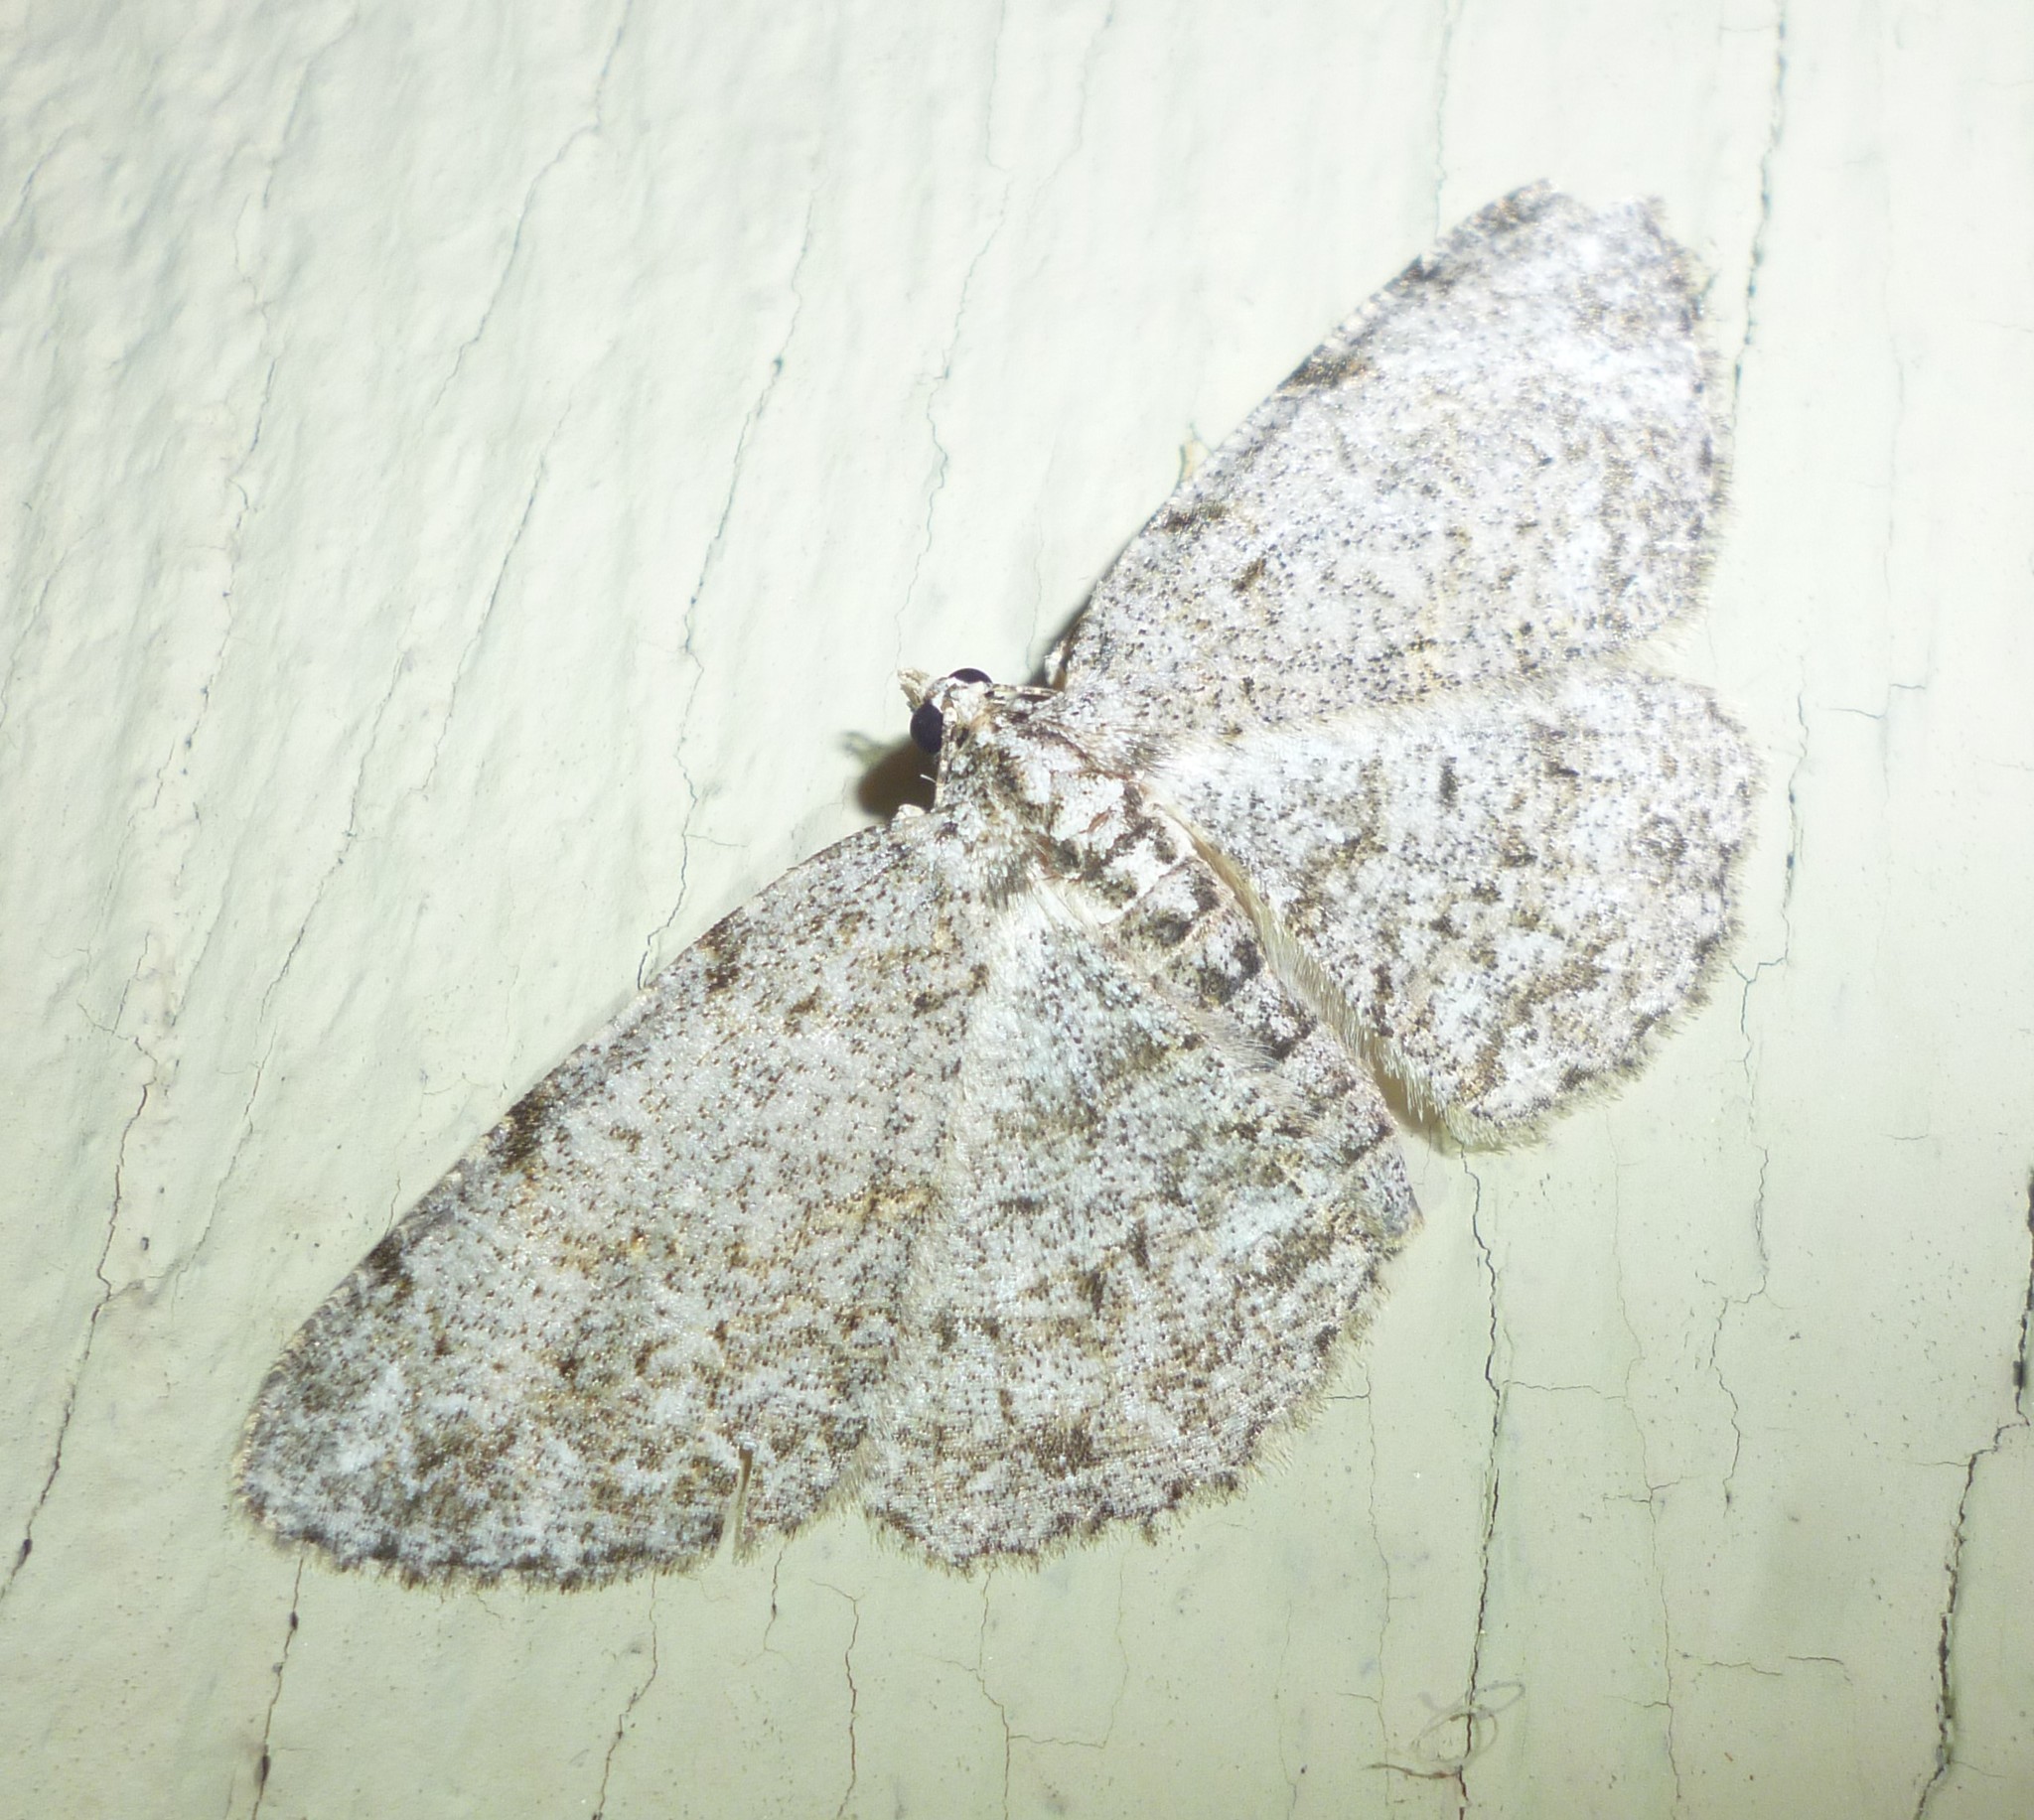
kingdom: Animalia
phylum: Arthropoda
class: Insecta
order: Lepidoptera
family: Geometridae
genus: Protoboarmia
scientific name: Protoboarmia porcelaria
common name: Porcelain gray
